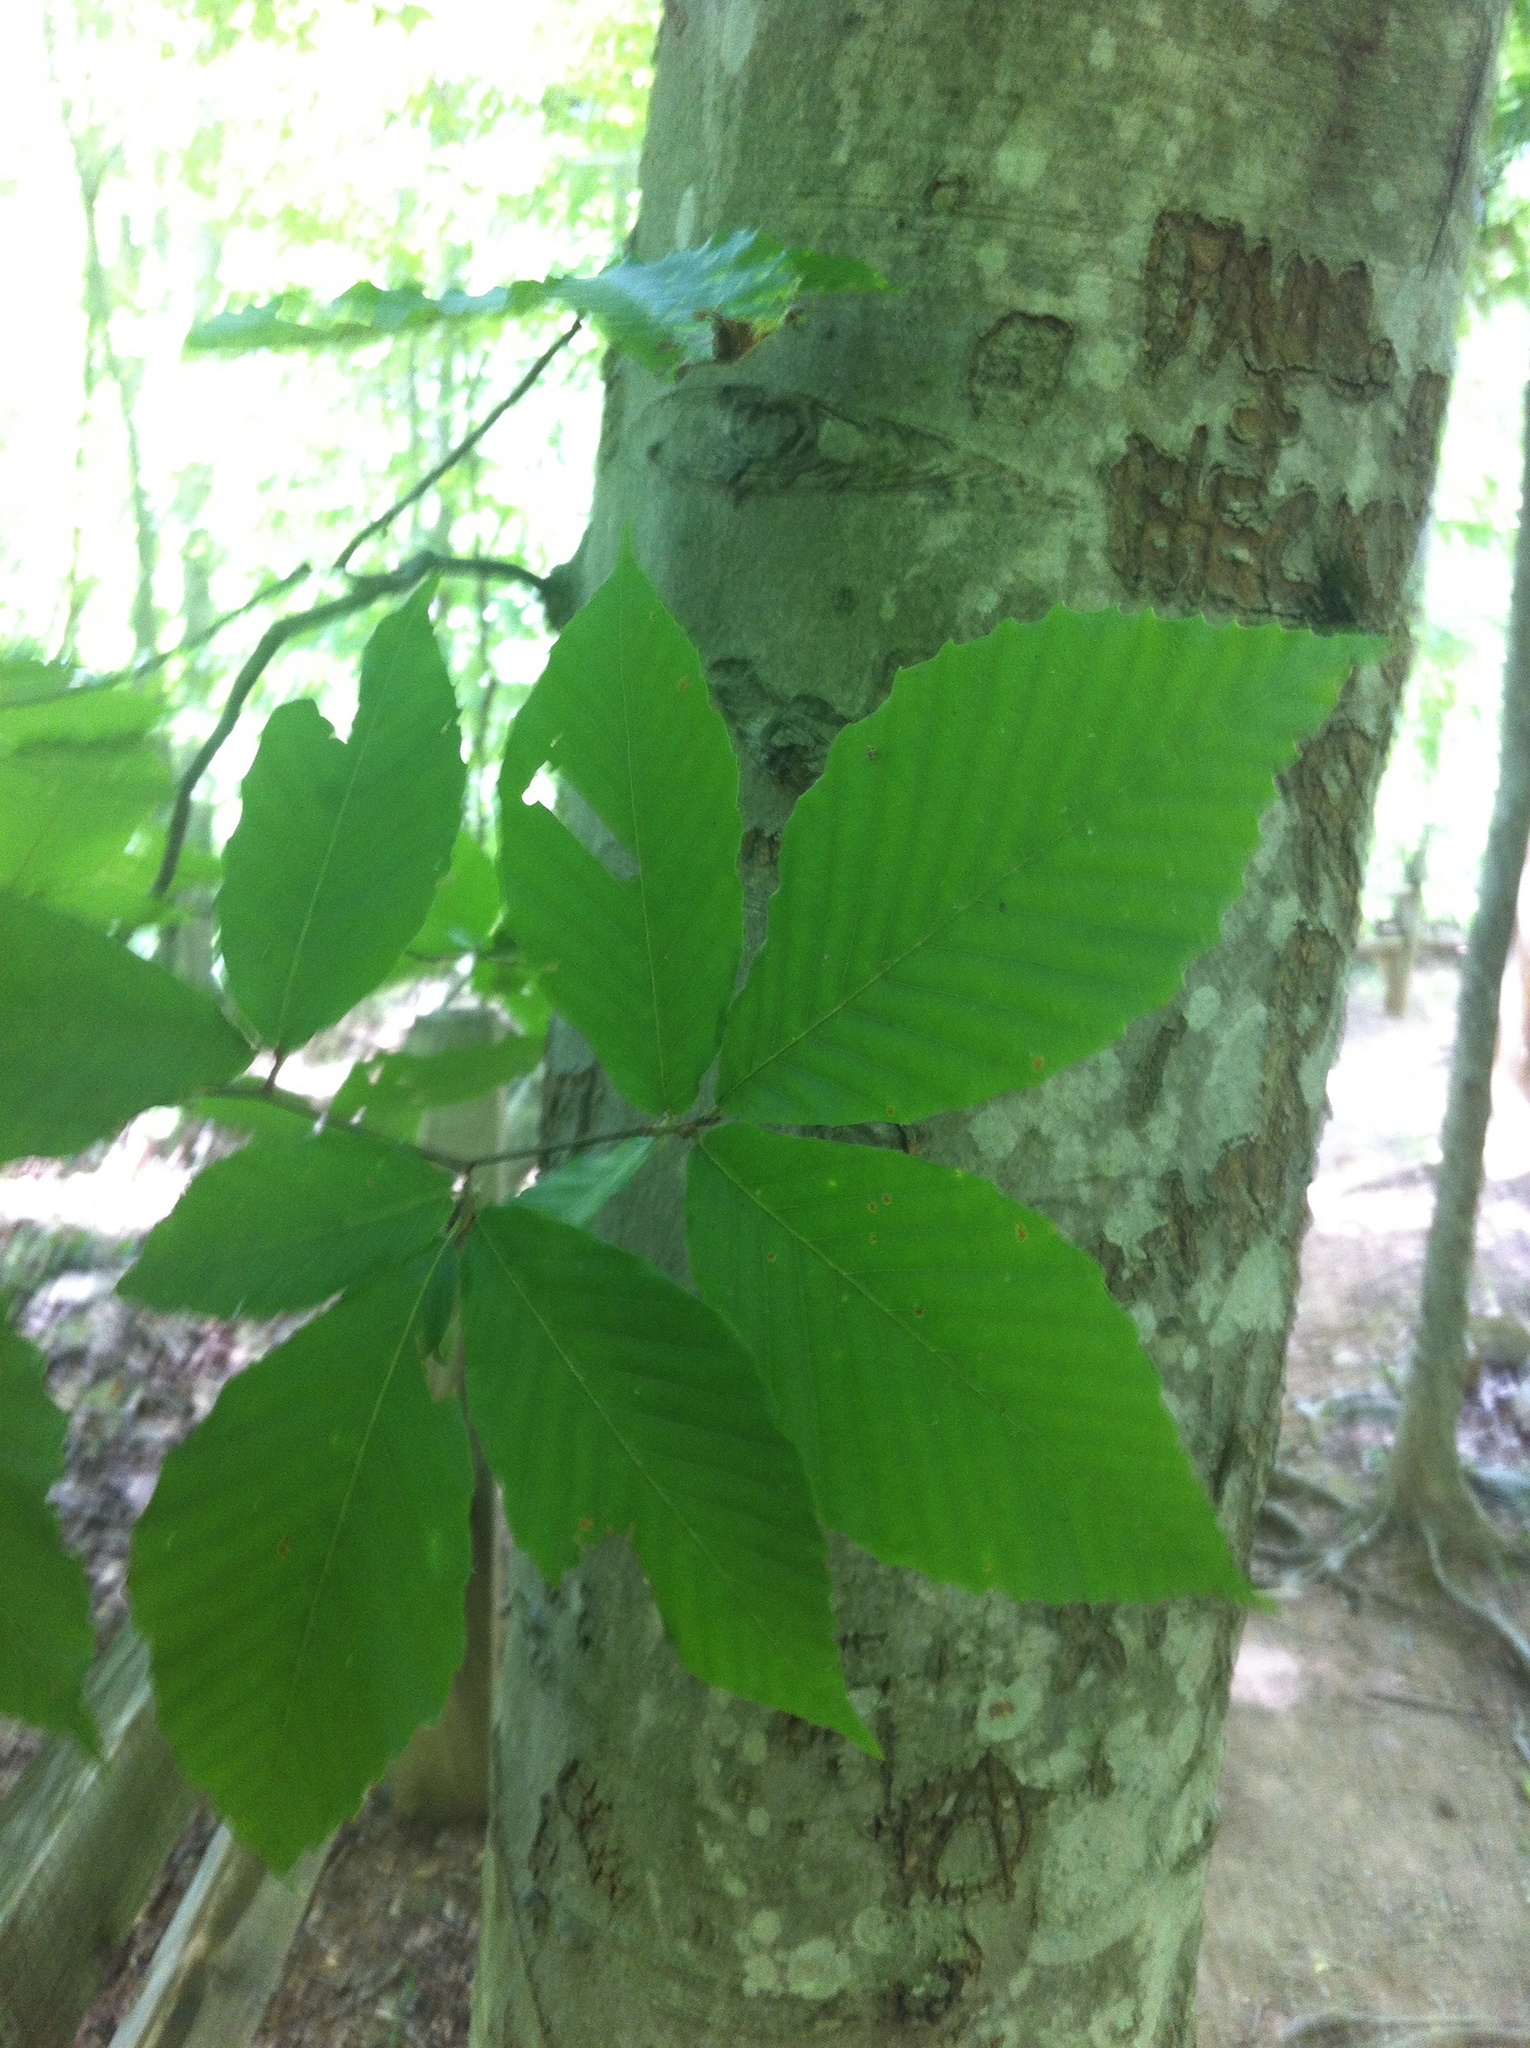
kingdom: Plantae
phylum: Tracheophyta
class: Magnoliopsida
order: Fagales
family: Fagaceae
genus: Fagus
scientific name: Fagus grandifolia
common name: American beech
